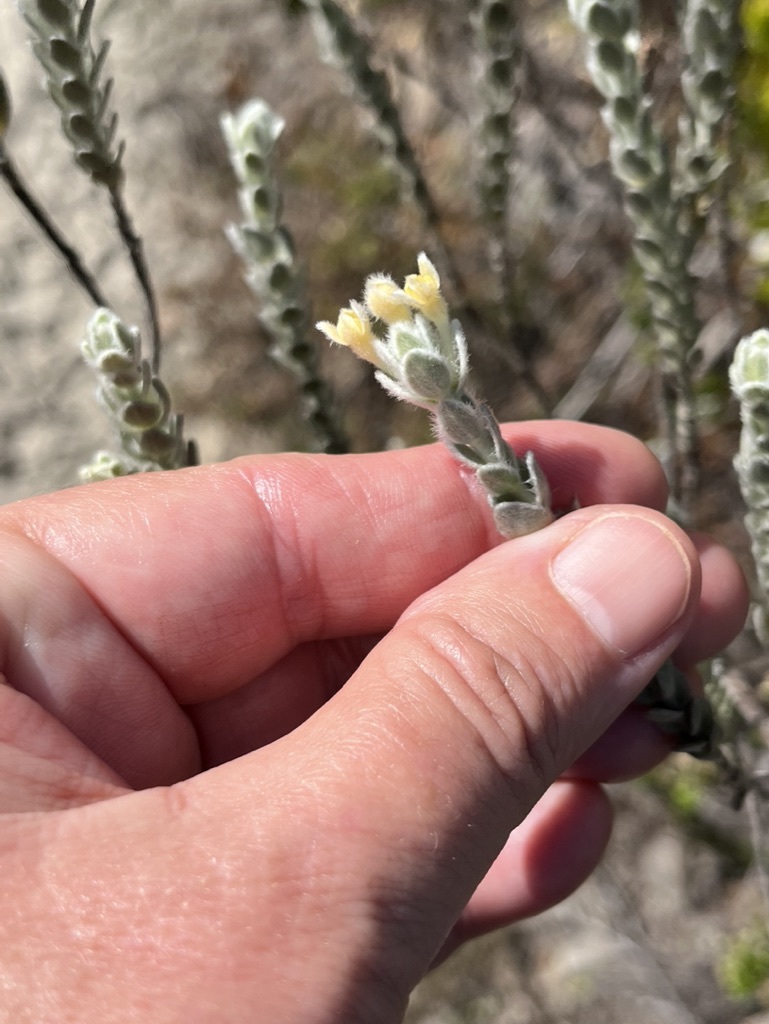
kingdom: Plantae
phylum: Tracheophyta
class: Magnoliopsida
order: Malvales
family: Thymelaeaceae
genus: Gnidia
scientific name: Gnidia imbricata
